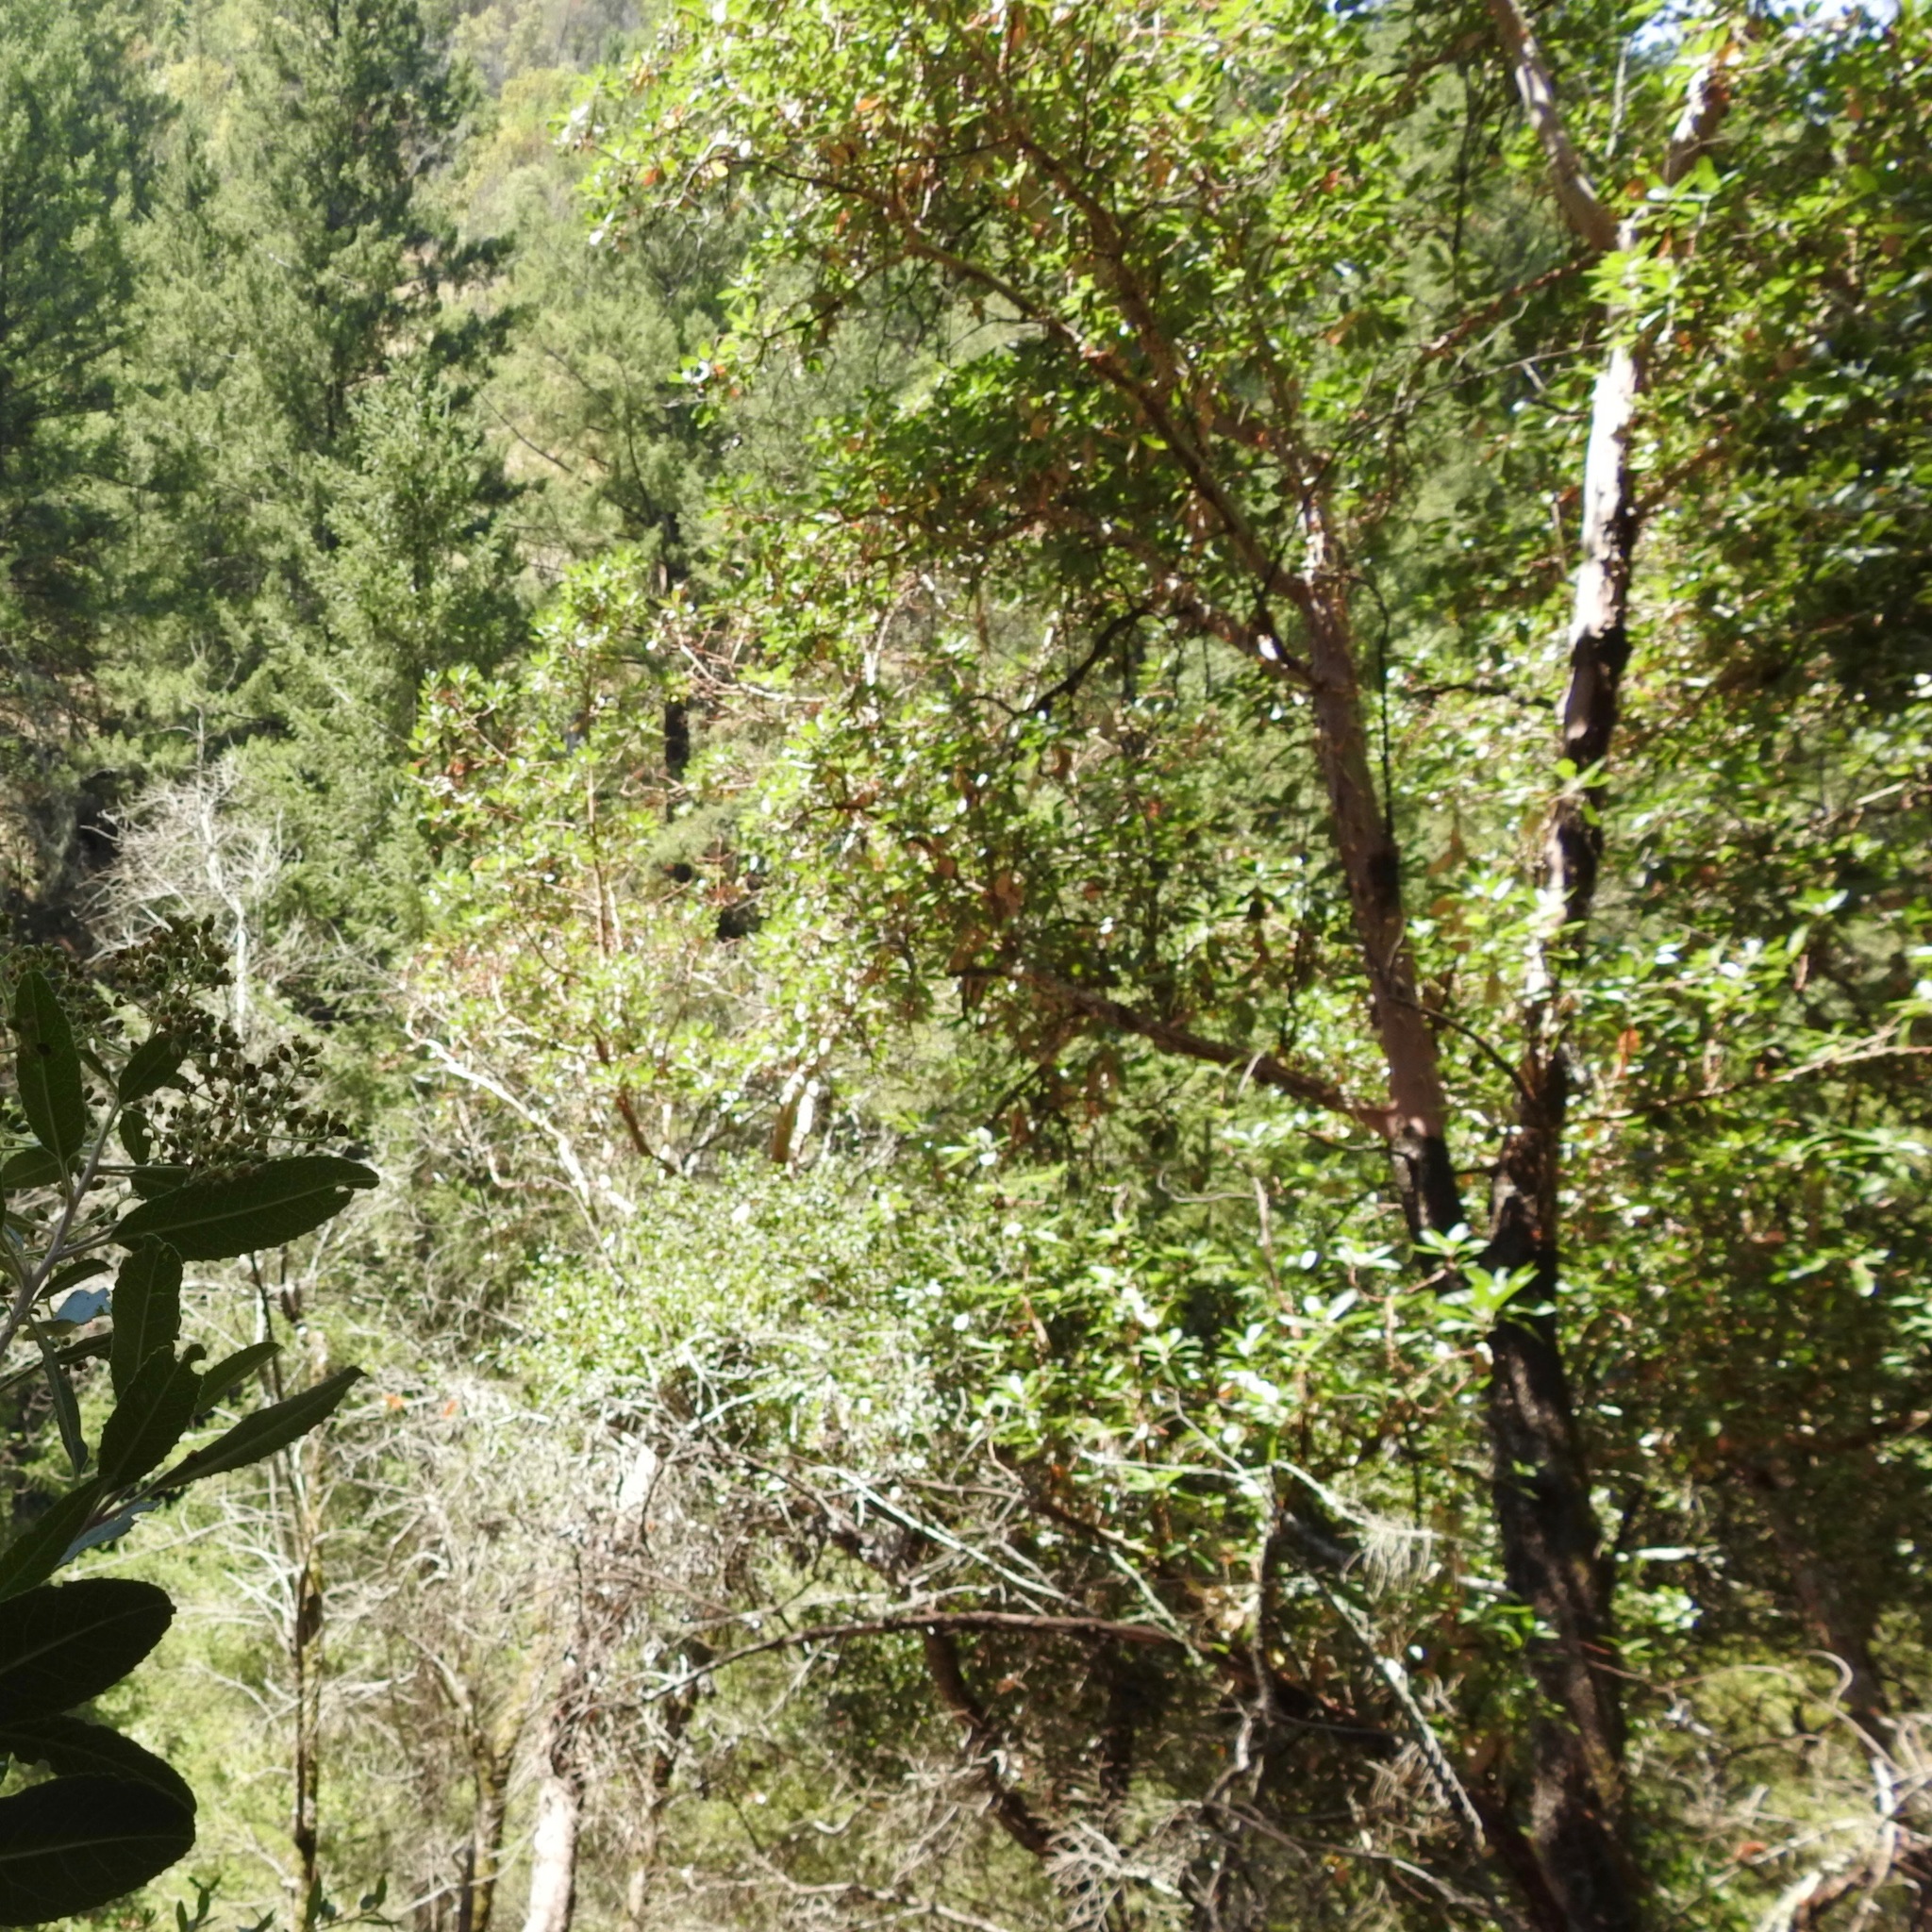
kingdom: Plantae
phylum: Tracheophyta
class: Magnoliopsida
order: Ericales
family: Ericaceae
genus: Arbutus
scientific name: Arbutus menziesii
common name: Pacific madrone
